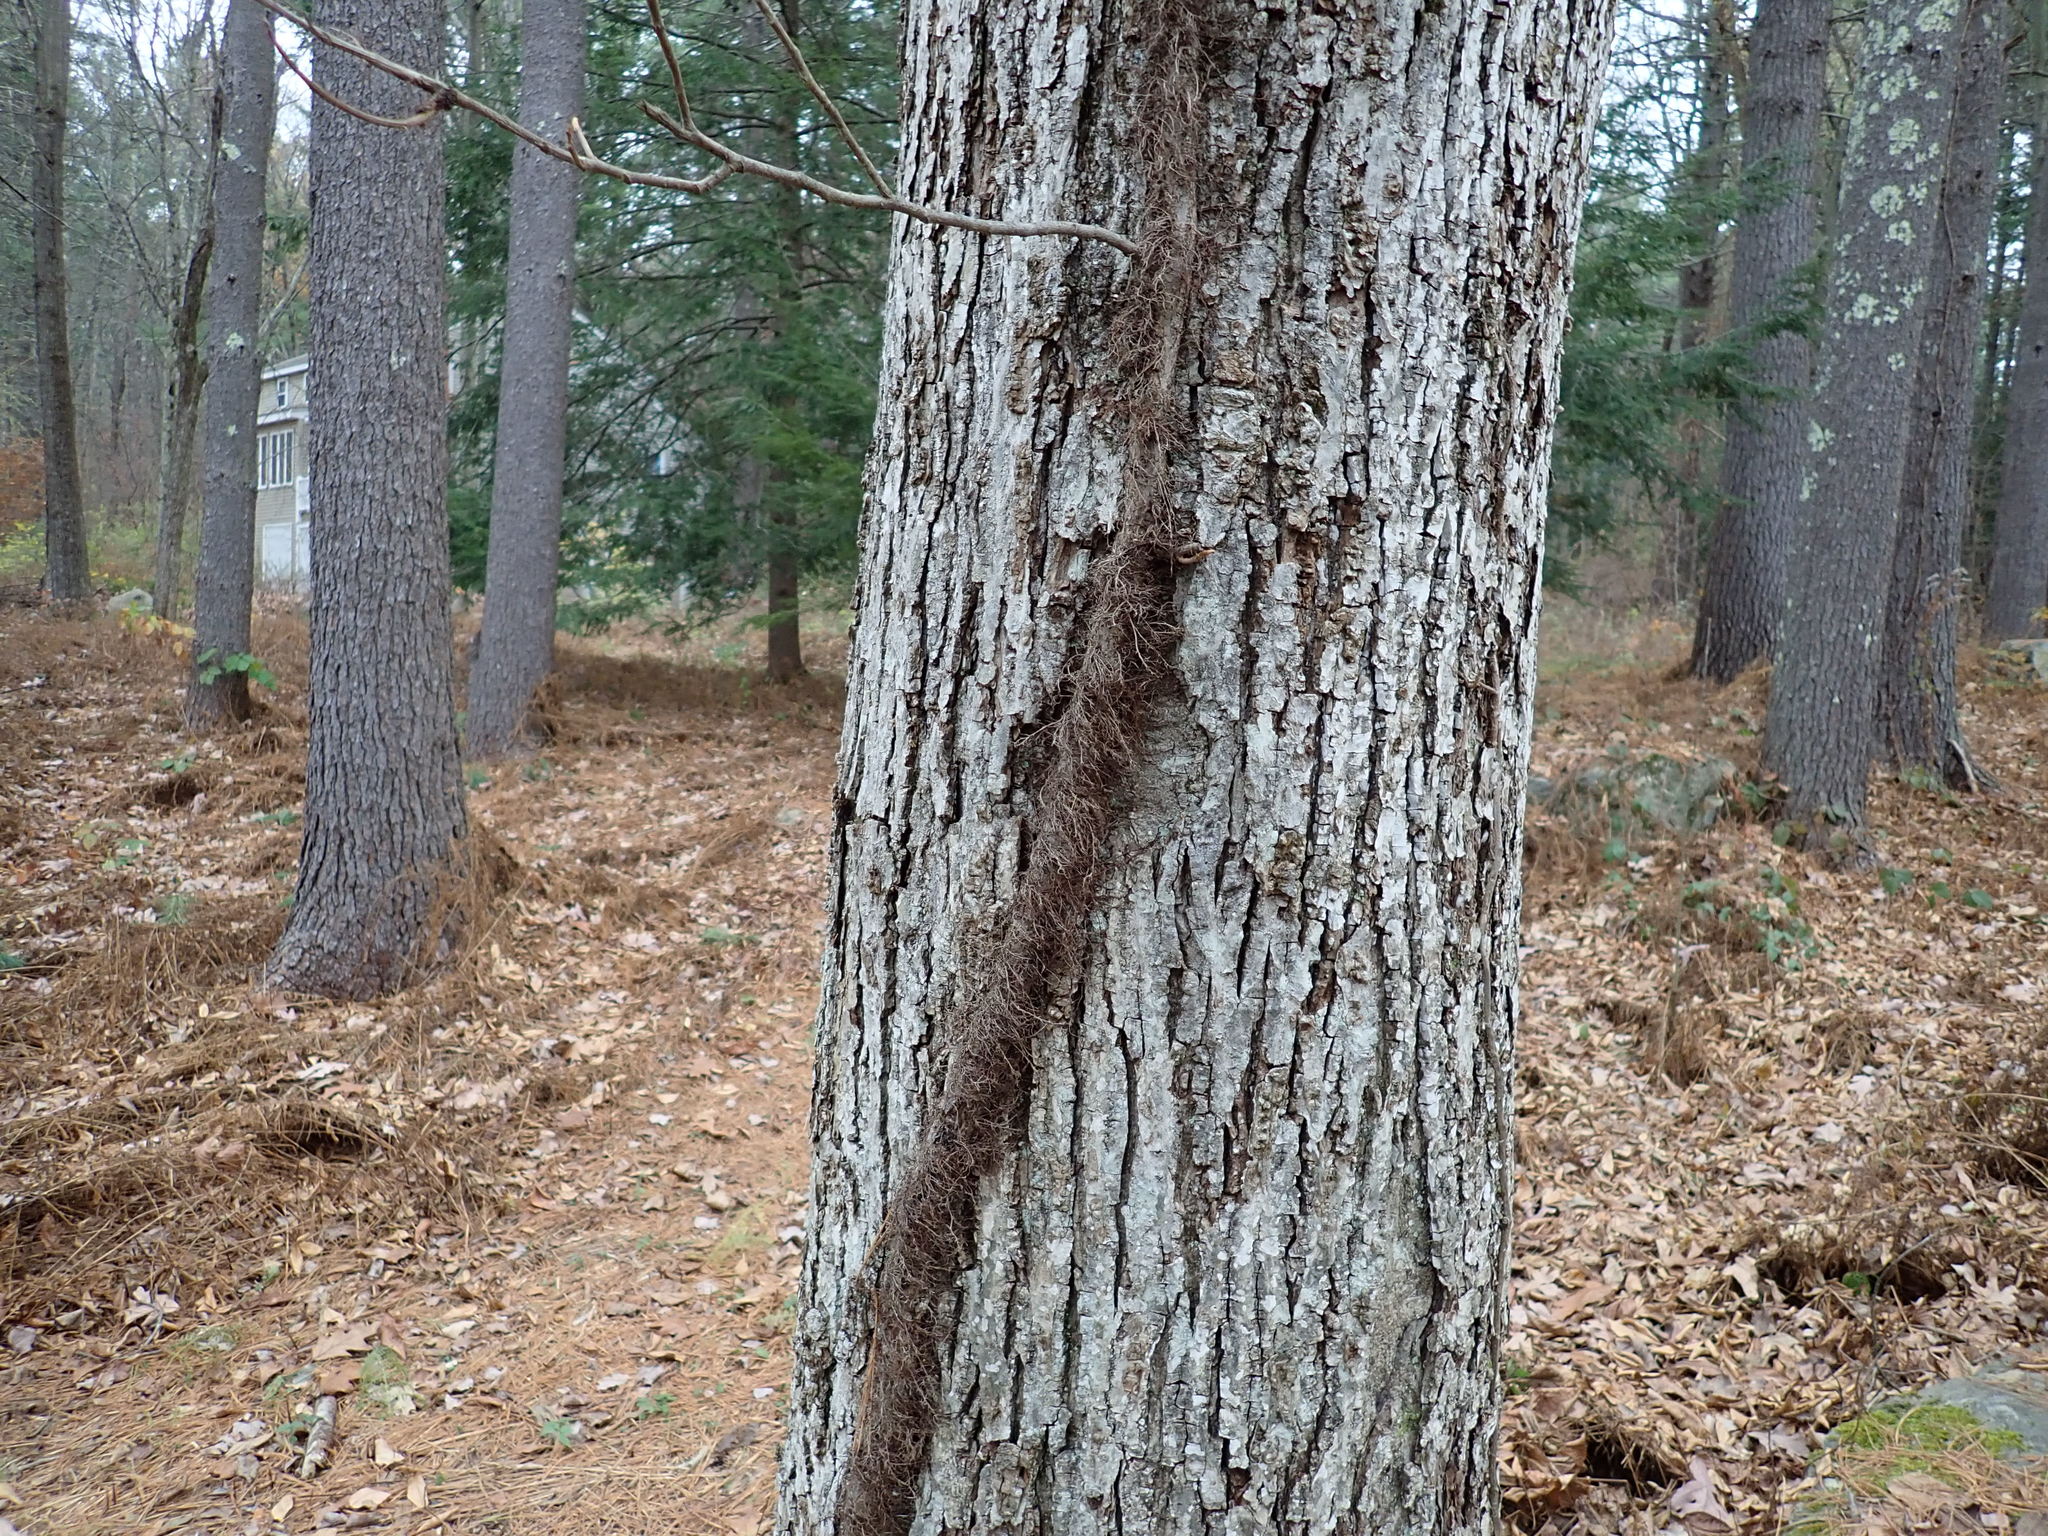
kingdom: Plantae
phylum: Tracheophyta
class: Magnoliopsida
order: Sapindales
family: Anacardiaceae
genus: Toxicodendron
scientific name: Toxicodendron radicans
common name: Poison ivy
